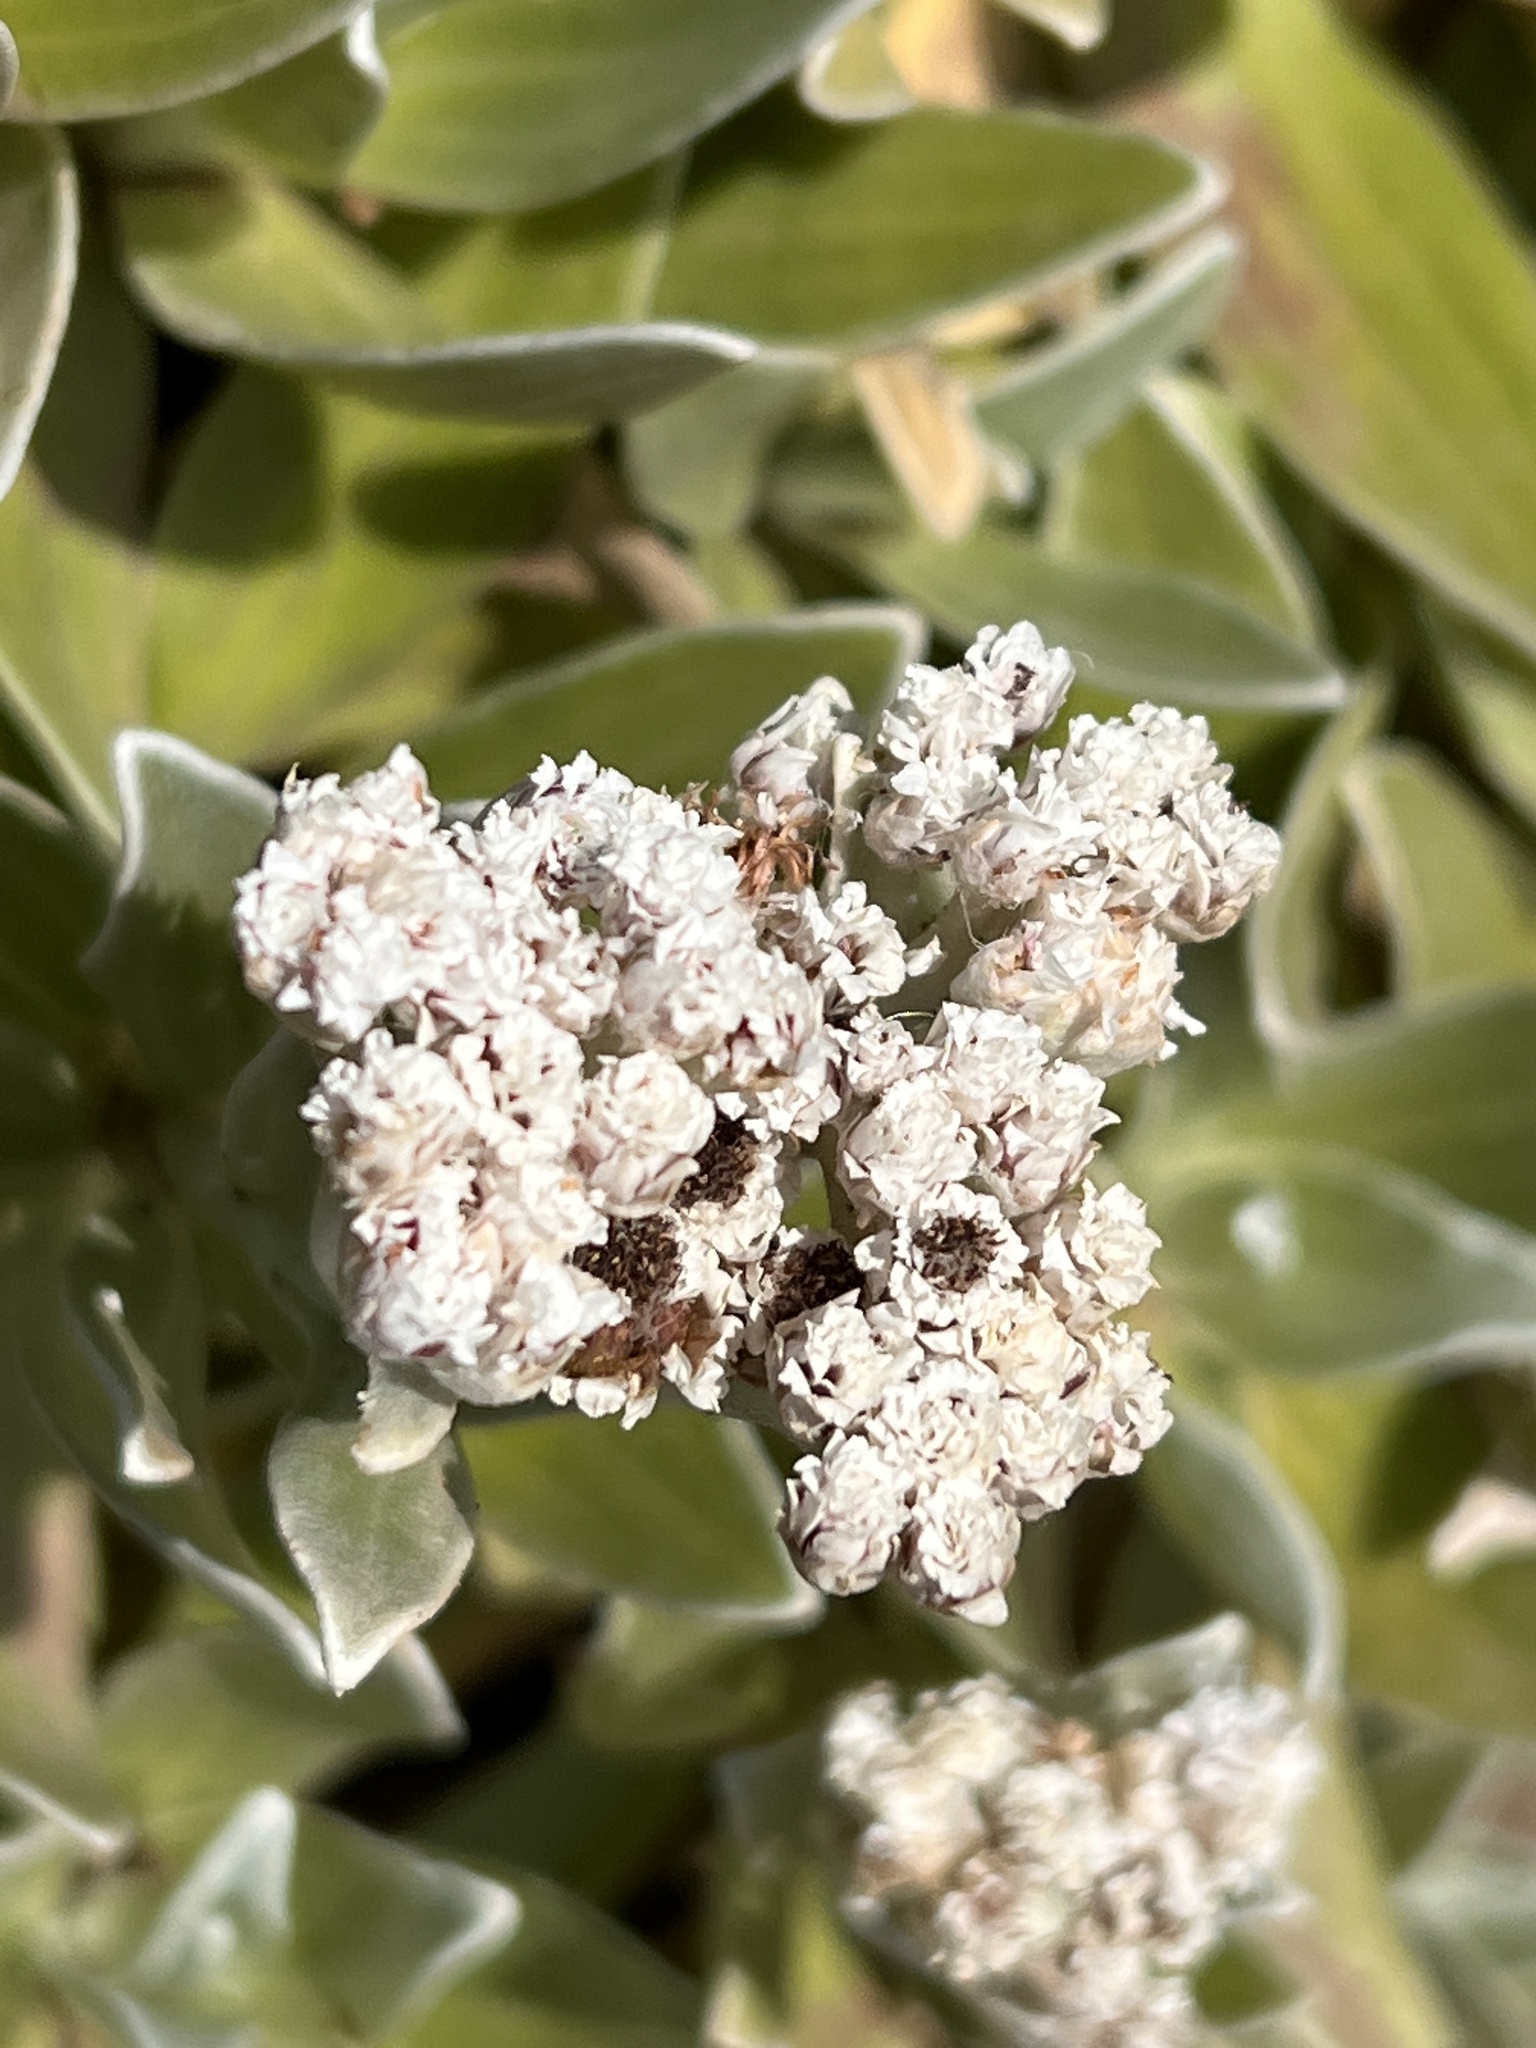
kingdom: Plantae
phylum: Tracheophyta
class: Magnoliopsida
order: Asterales
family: Asteraceae
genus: Helichrysum
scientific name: Helichrysum devium
